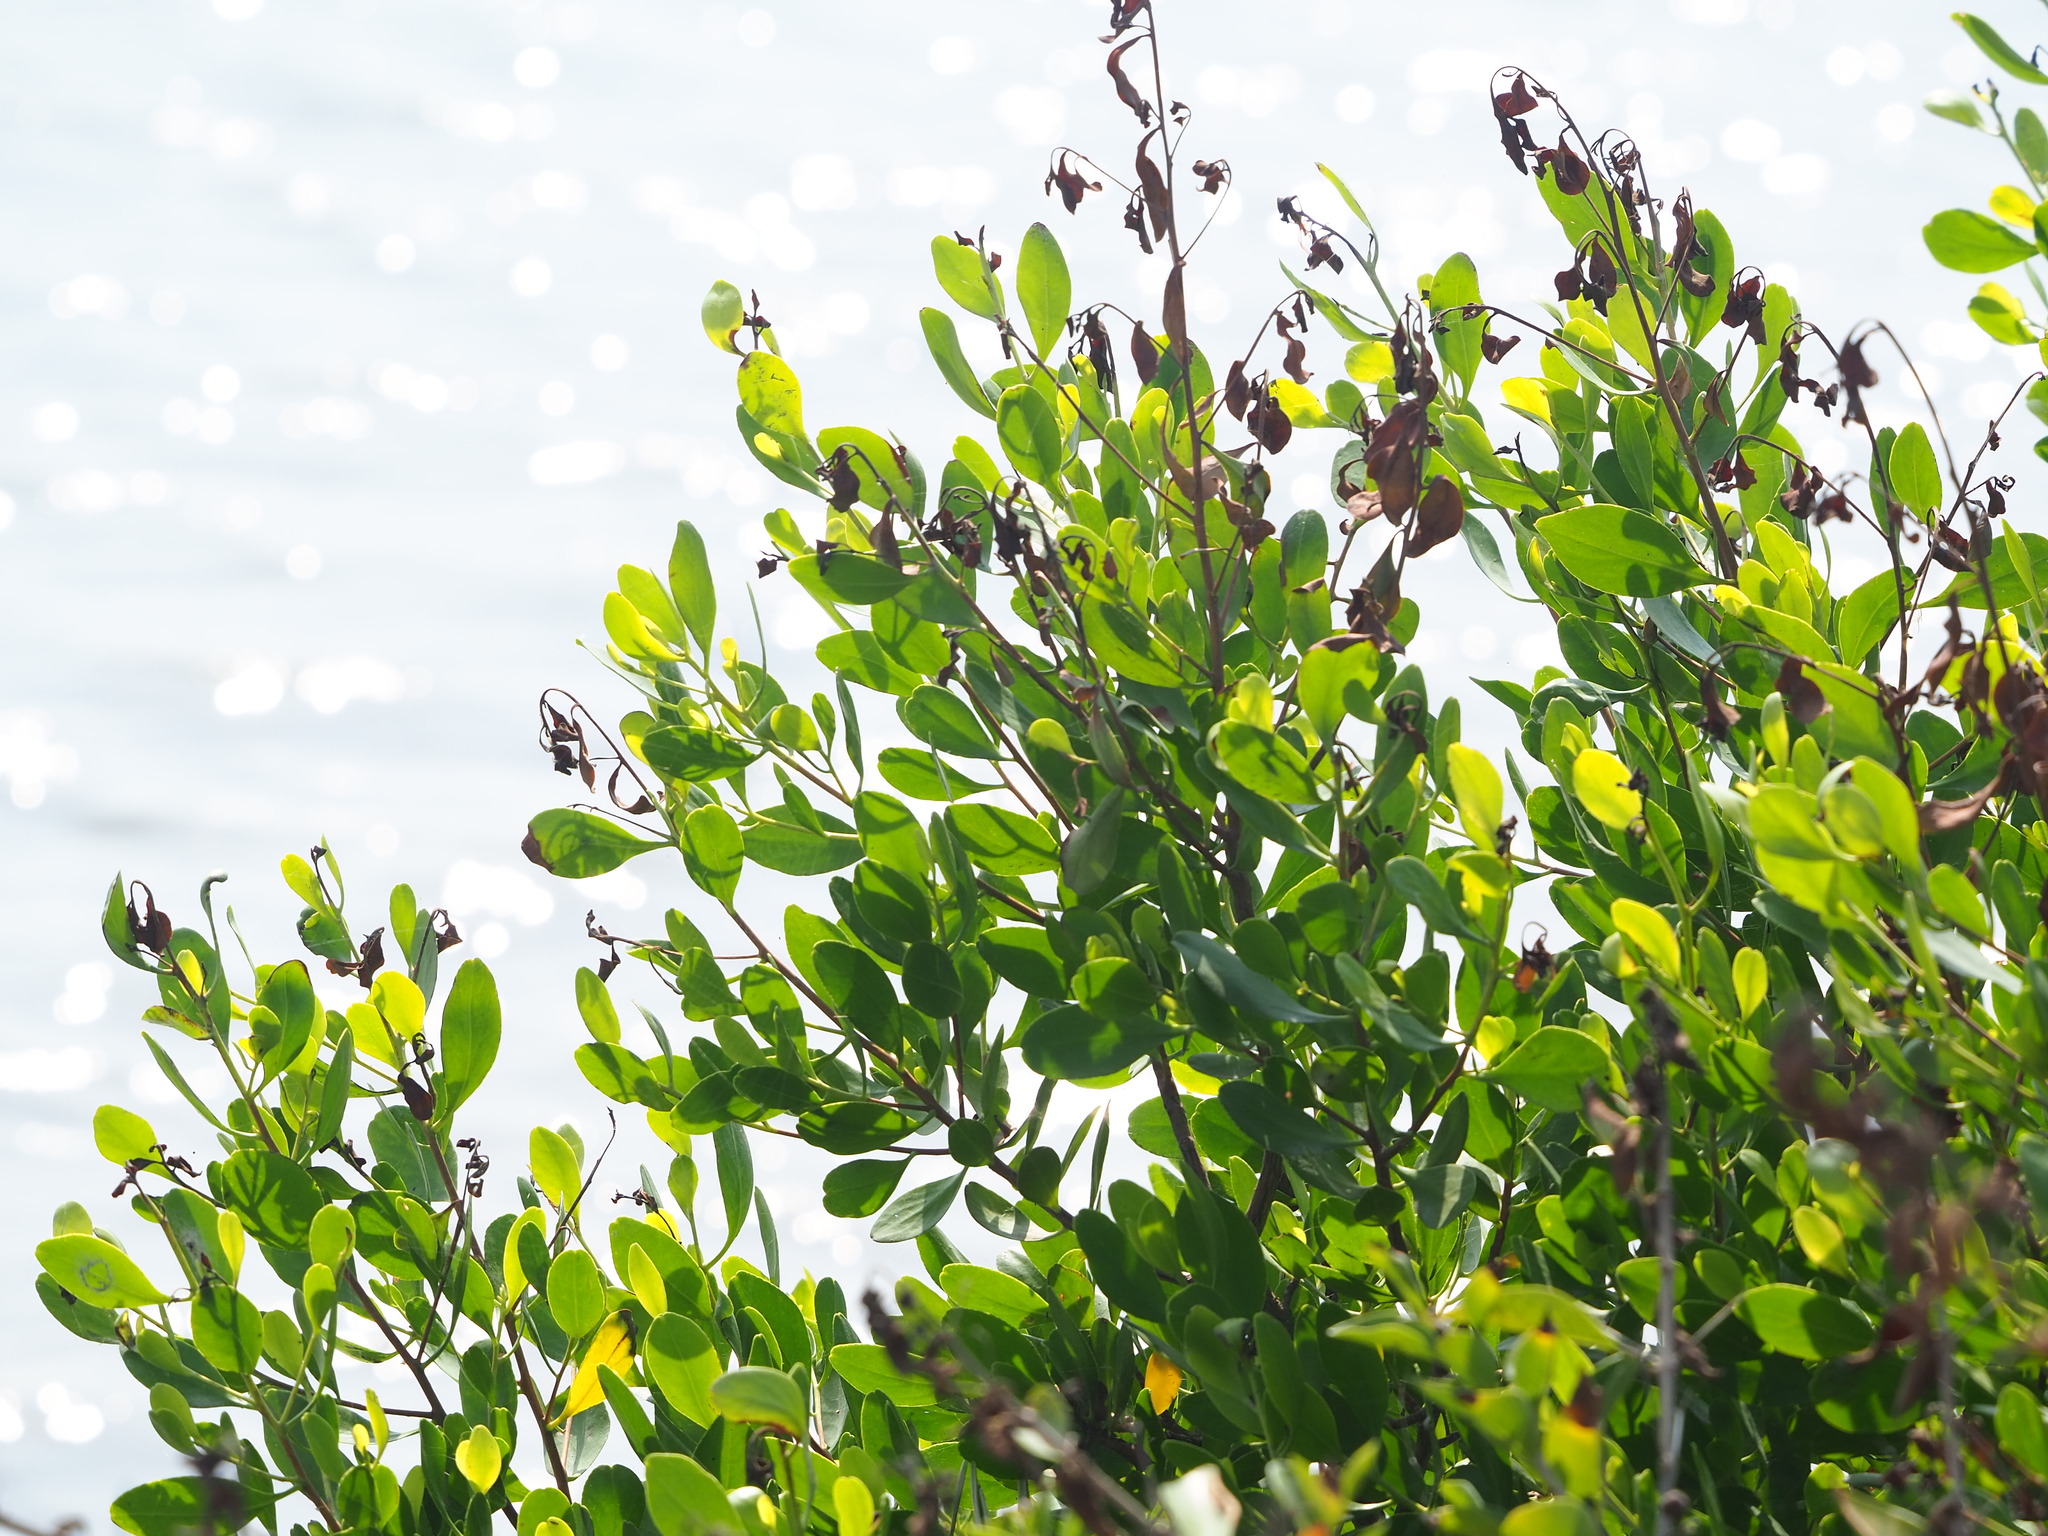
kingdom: Plantae
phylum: Tracheophyta
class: Magnoliopsida
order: Myrtales
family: Combretaceae
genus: Lumnitzera
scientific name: Lumnitzera racemosa
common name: White-flowered black mangrove
